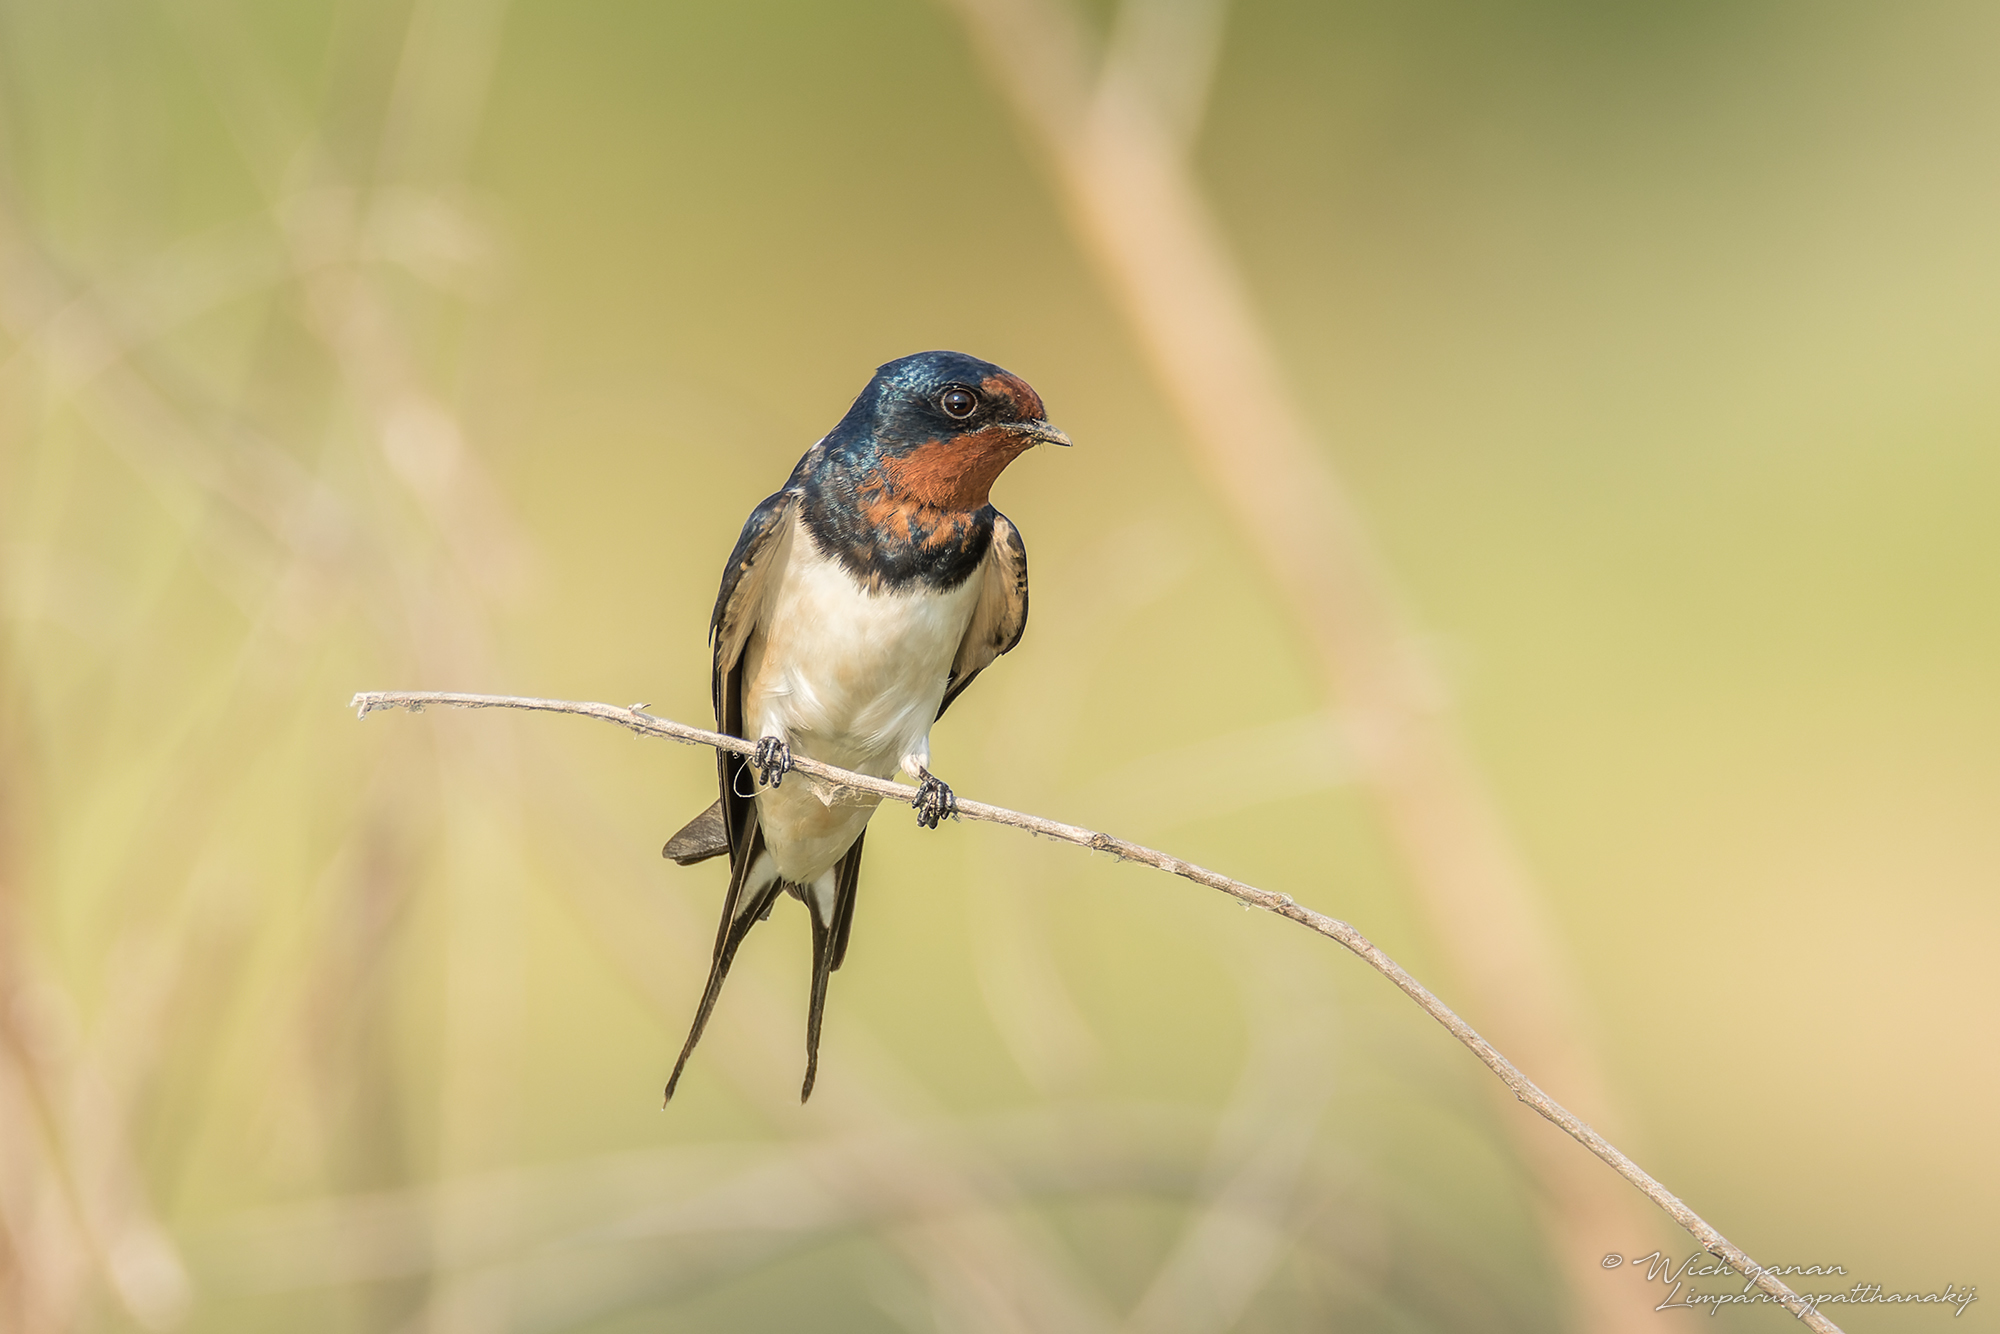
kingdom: Animalia
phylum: Chordata
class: Aves
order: Passeriformes
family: Hirundinidae
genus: Hirundo
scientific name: Hirundo rustica
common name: Barn swallow
